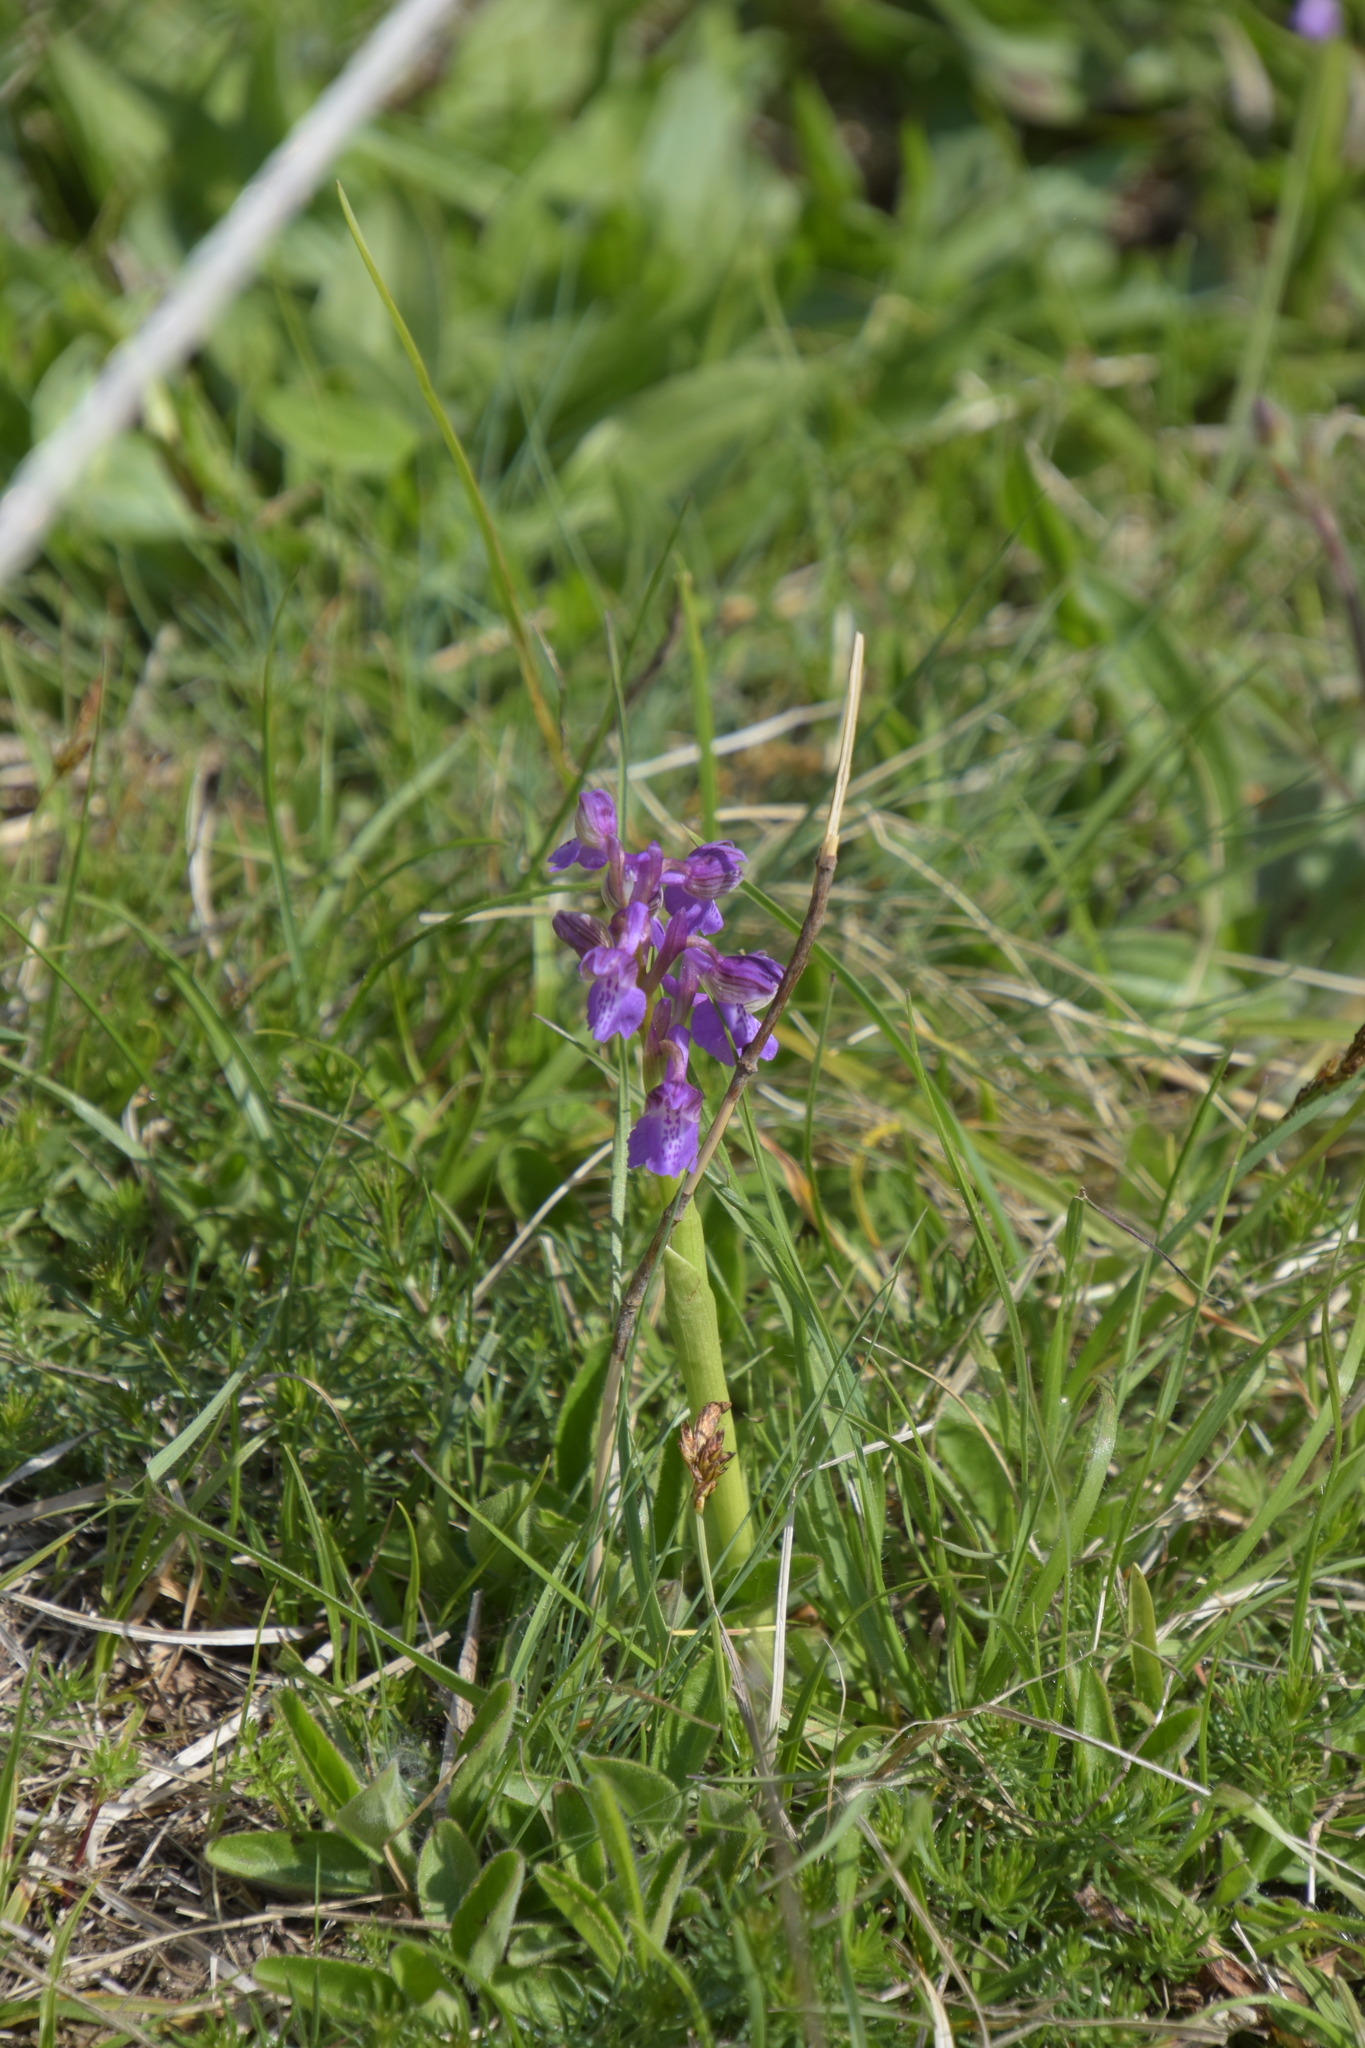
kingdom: Plantae
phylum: Tracheophyta
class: Liliopsida
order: Asparagales
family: Orchidaceae
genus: Anacamptis
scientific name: Anacamptis morio
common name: Green-winged orchid
